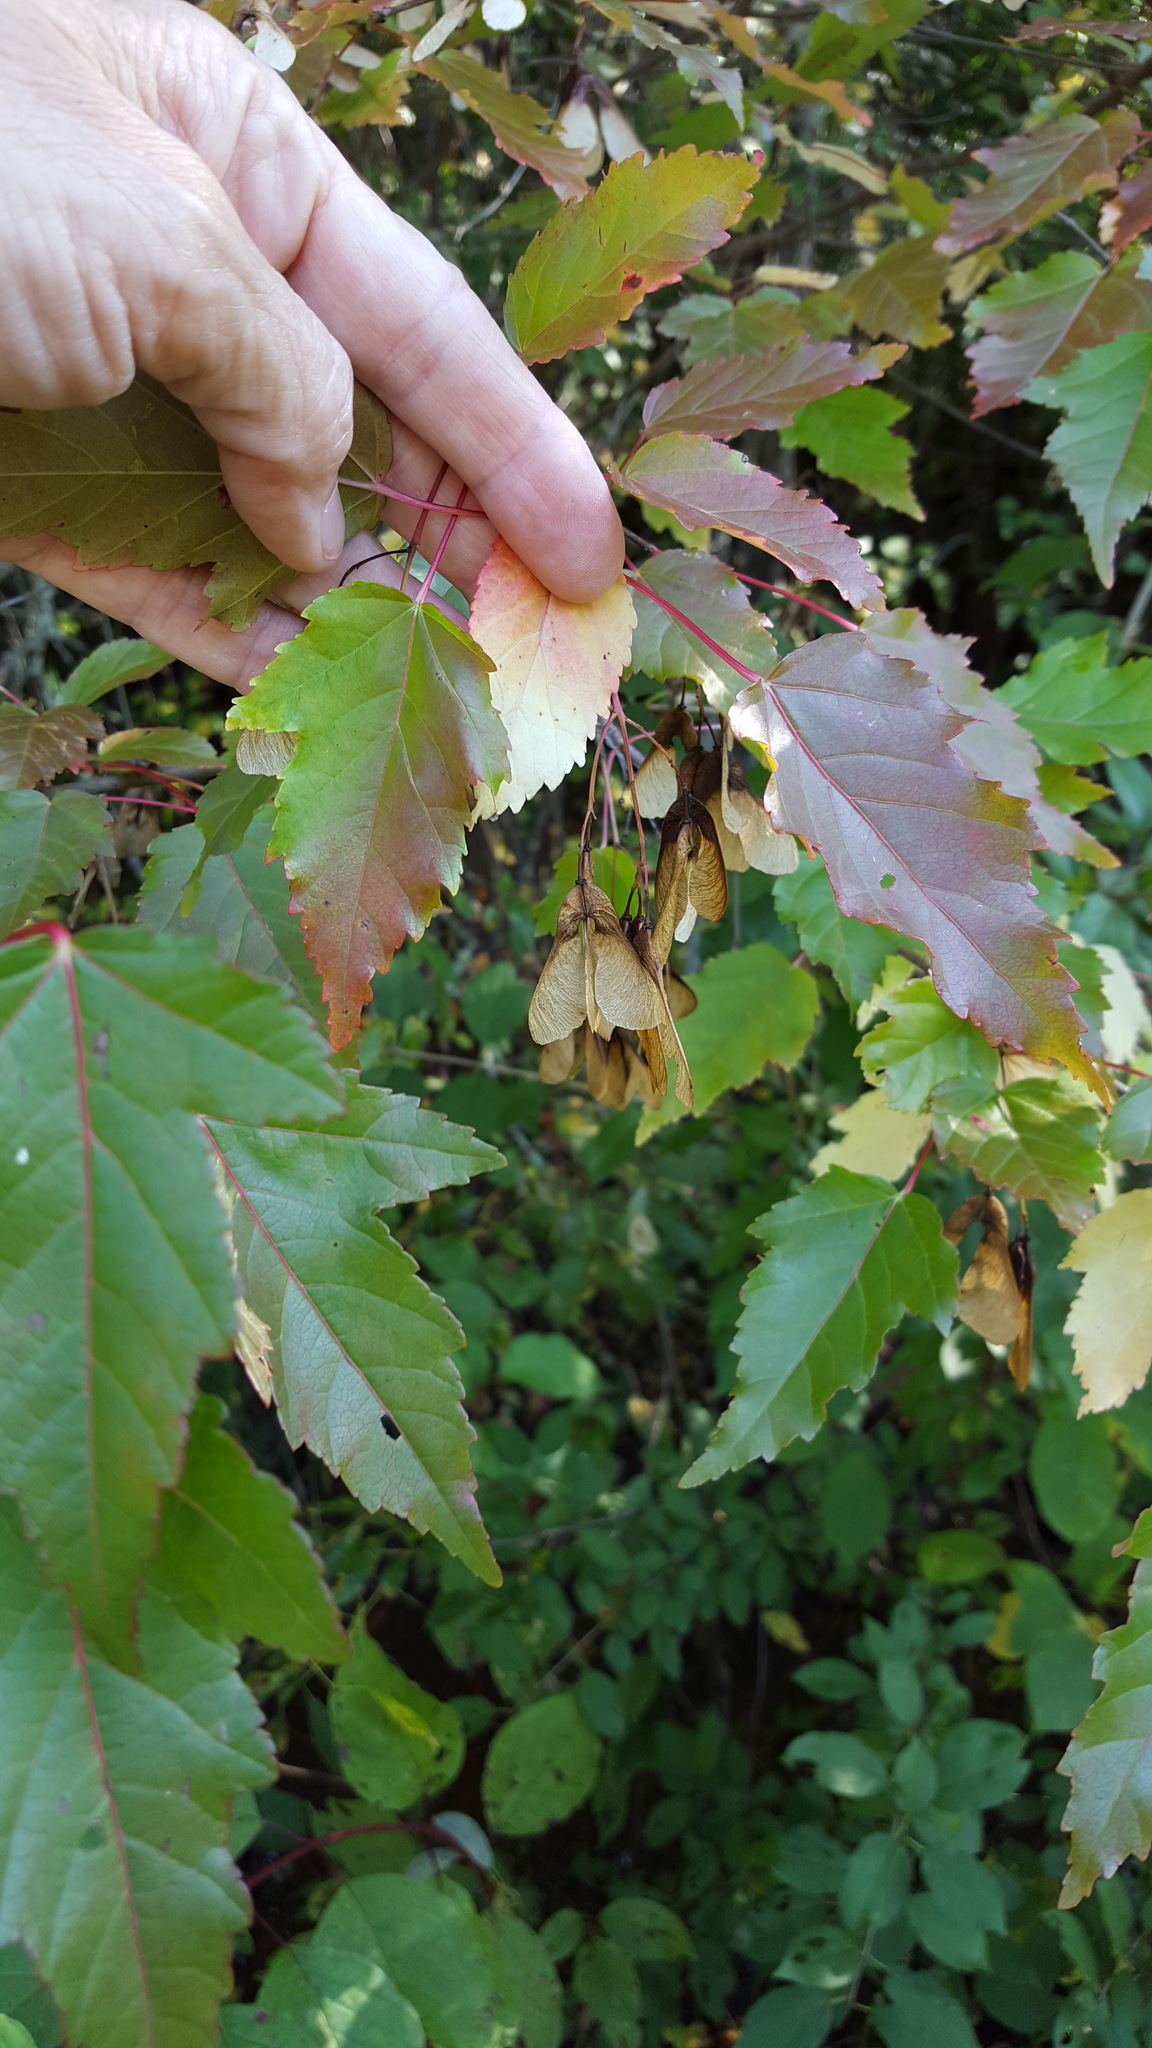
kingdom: Plantae
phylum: Tracheophyta
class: Magnoliopsida
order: Sapindales
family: Sapindaceae
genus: Acer
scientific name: Acer tataricum
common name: Tartar maple
